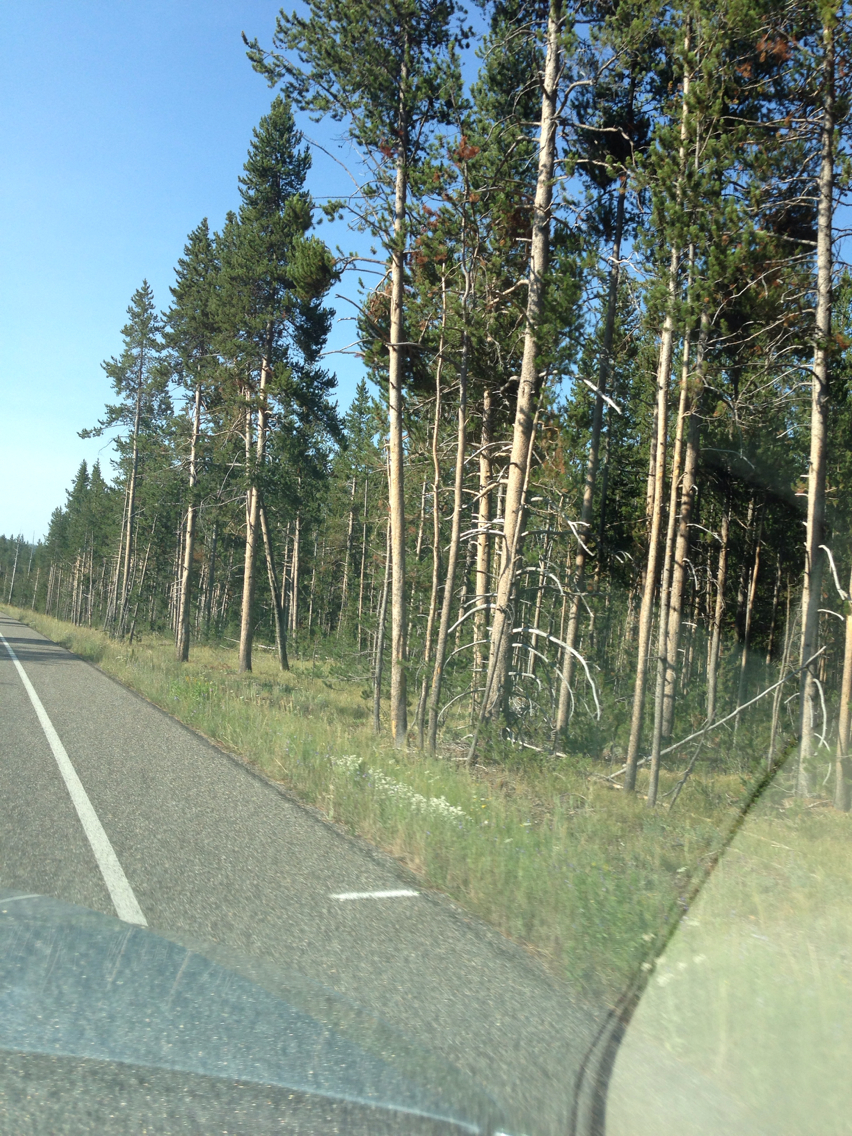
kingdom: Plantae
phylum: Tracheophyta
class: Pinopsida
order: Pinales
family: Pinaceae
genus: Pinus
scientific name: Pinus contorta
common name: Lodgepole pine
